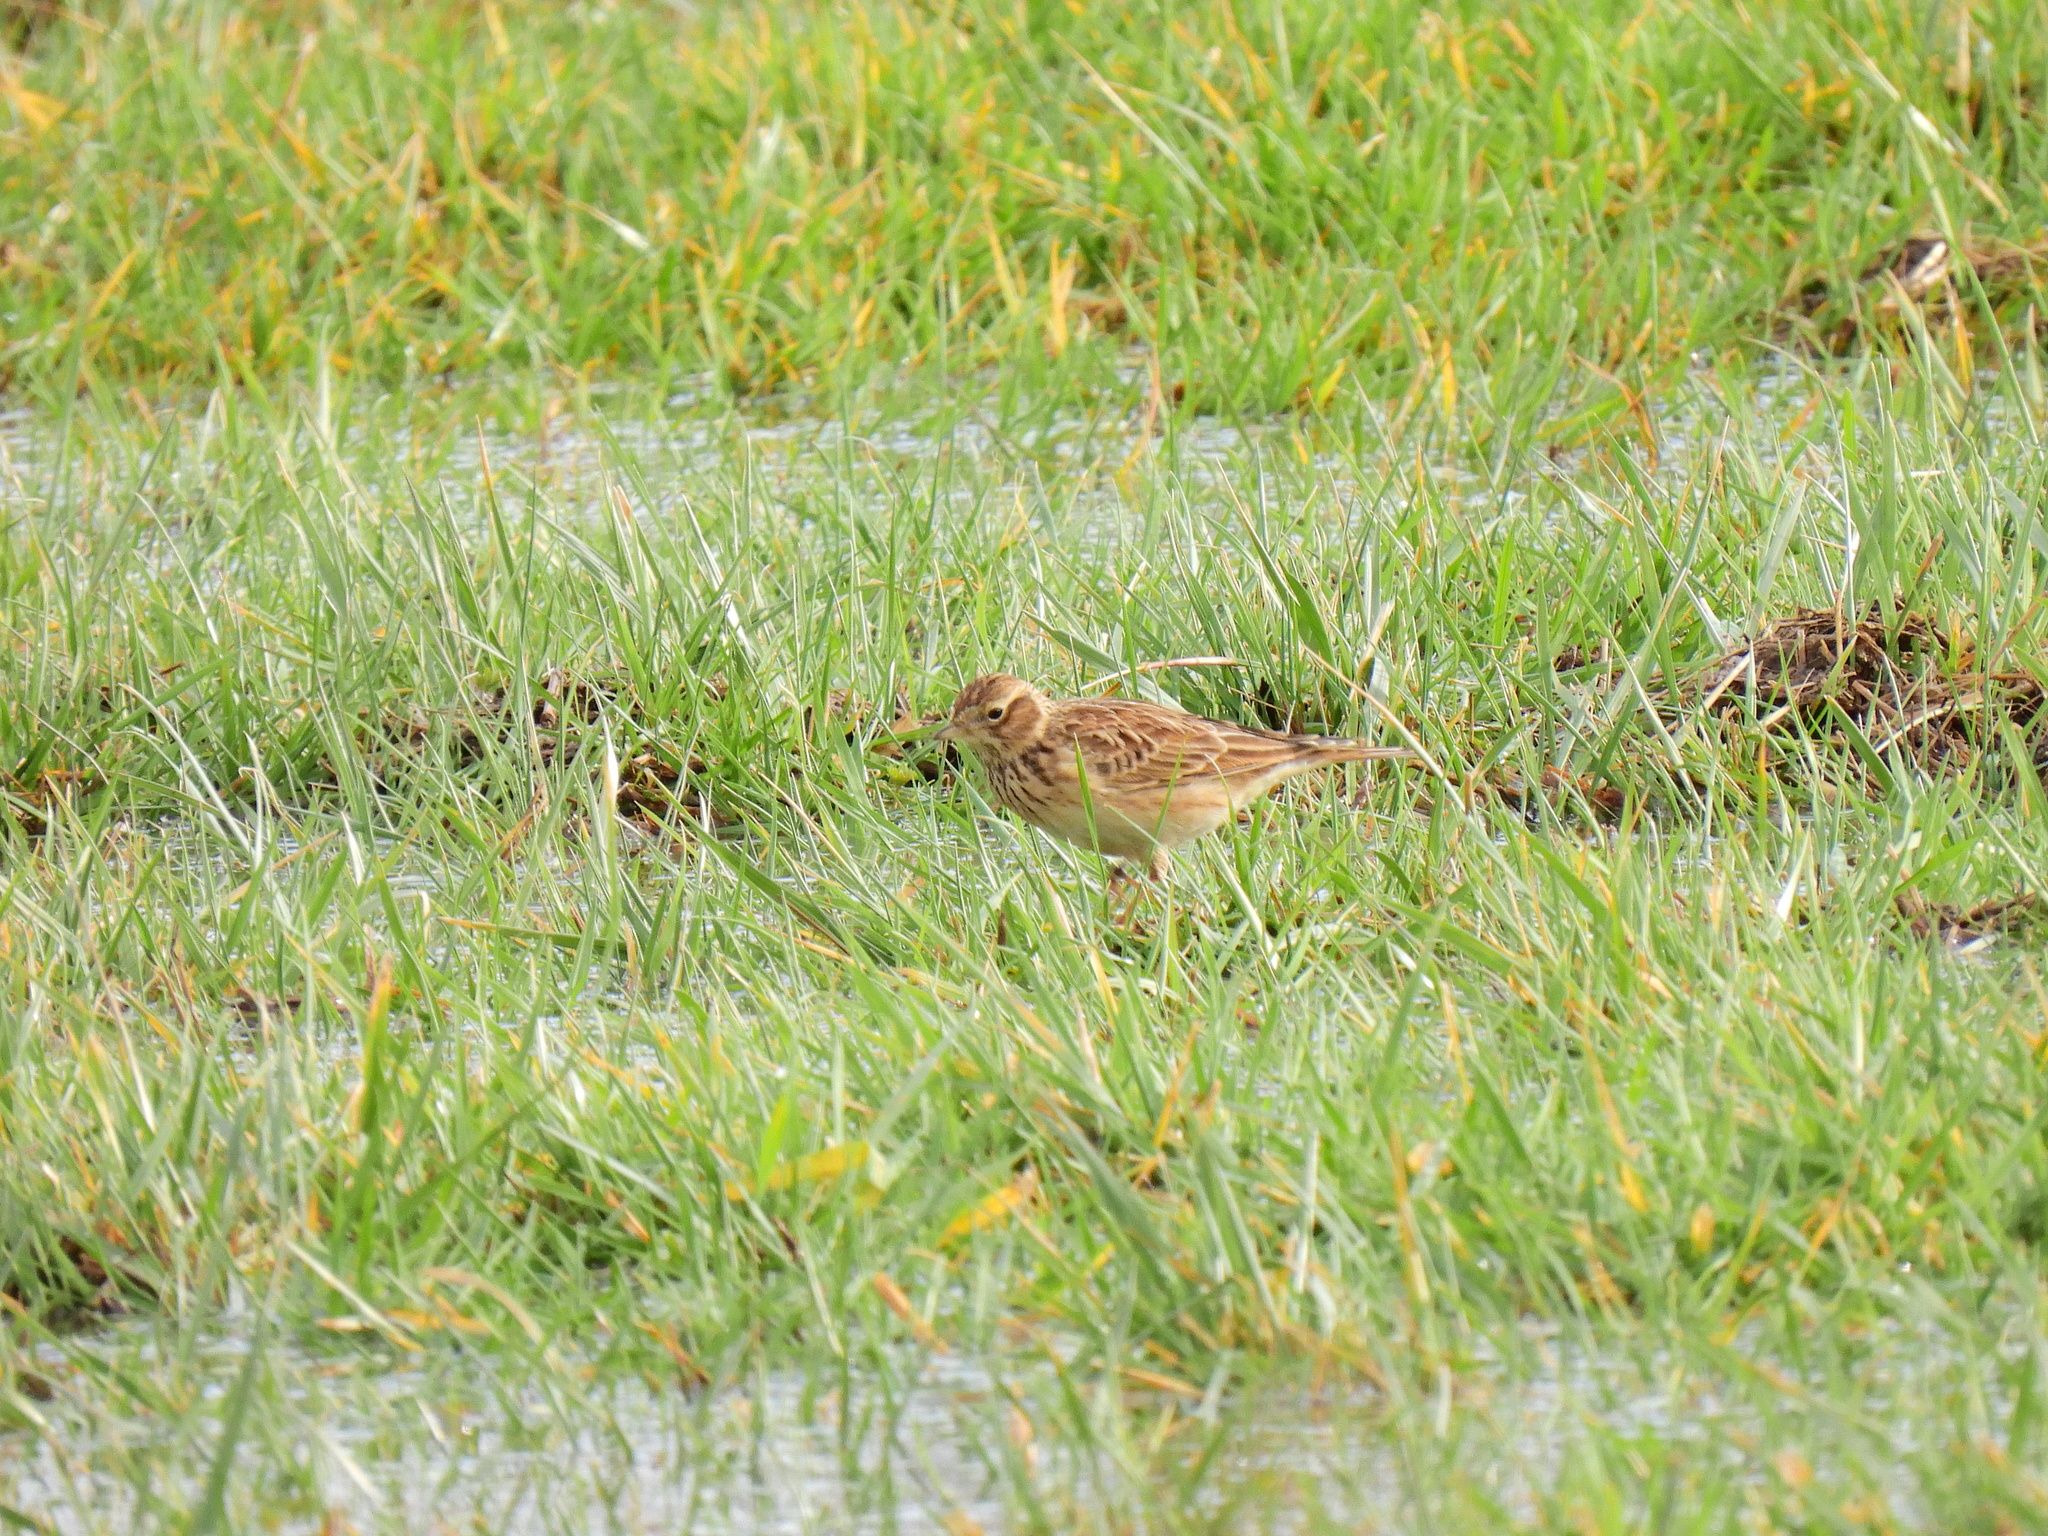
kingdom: Animalia
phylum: Chordata
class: Aves
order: Passeriformes
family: Alaudidae
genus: Alauda
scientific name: Alauda arvensis
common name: Eurasian skylark
